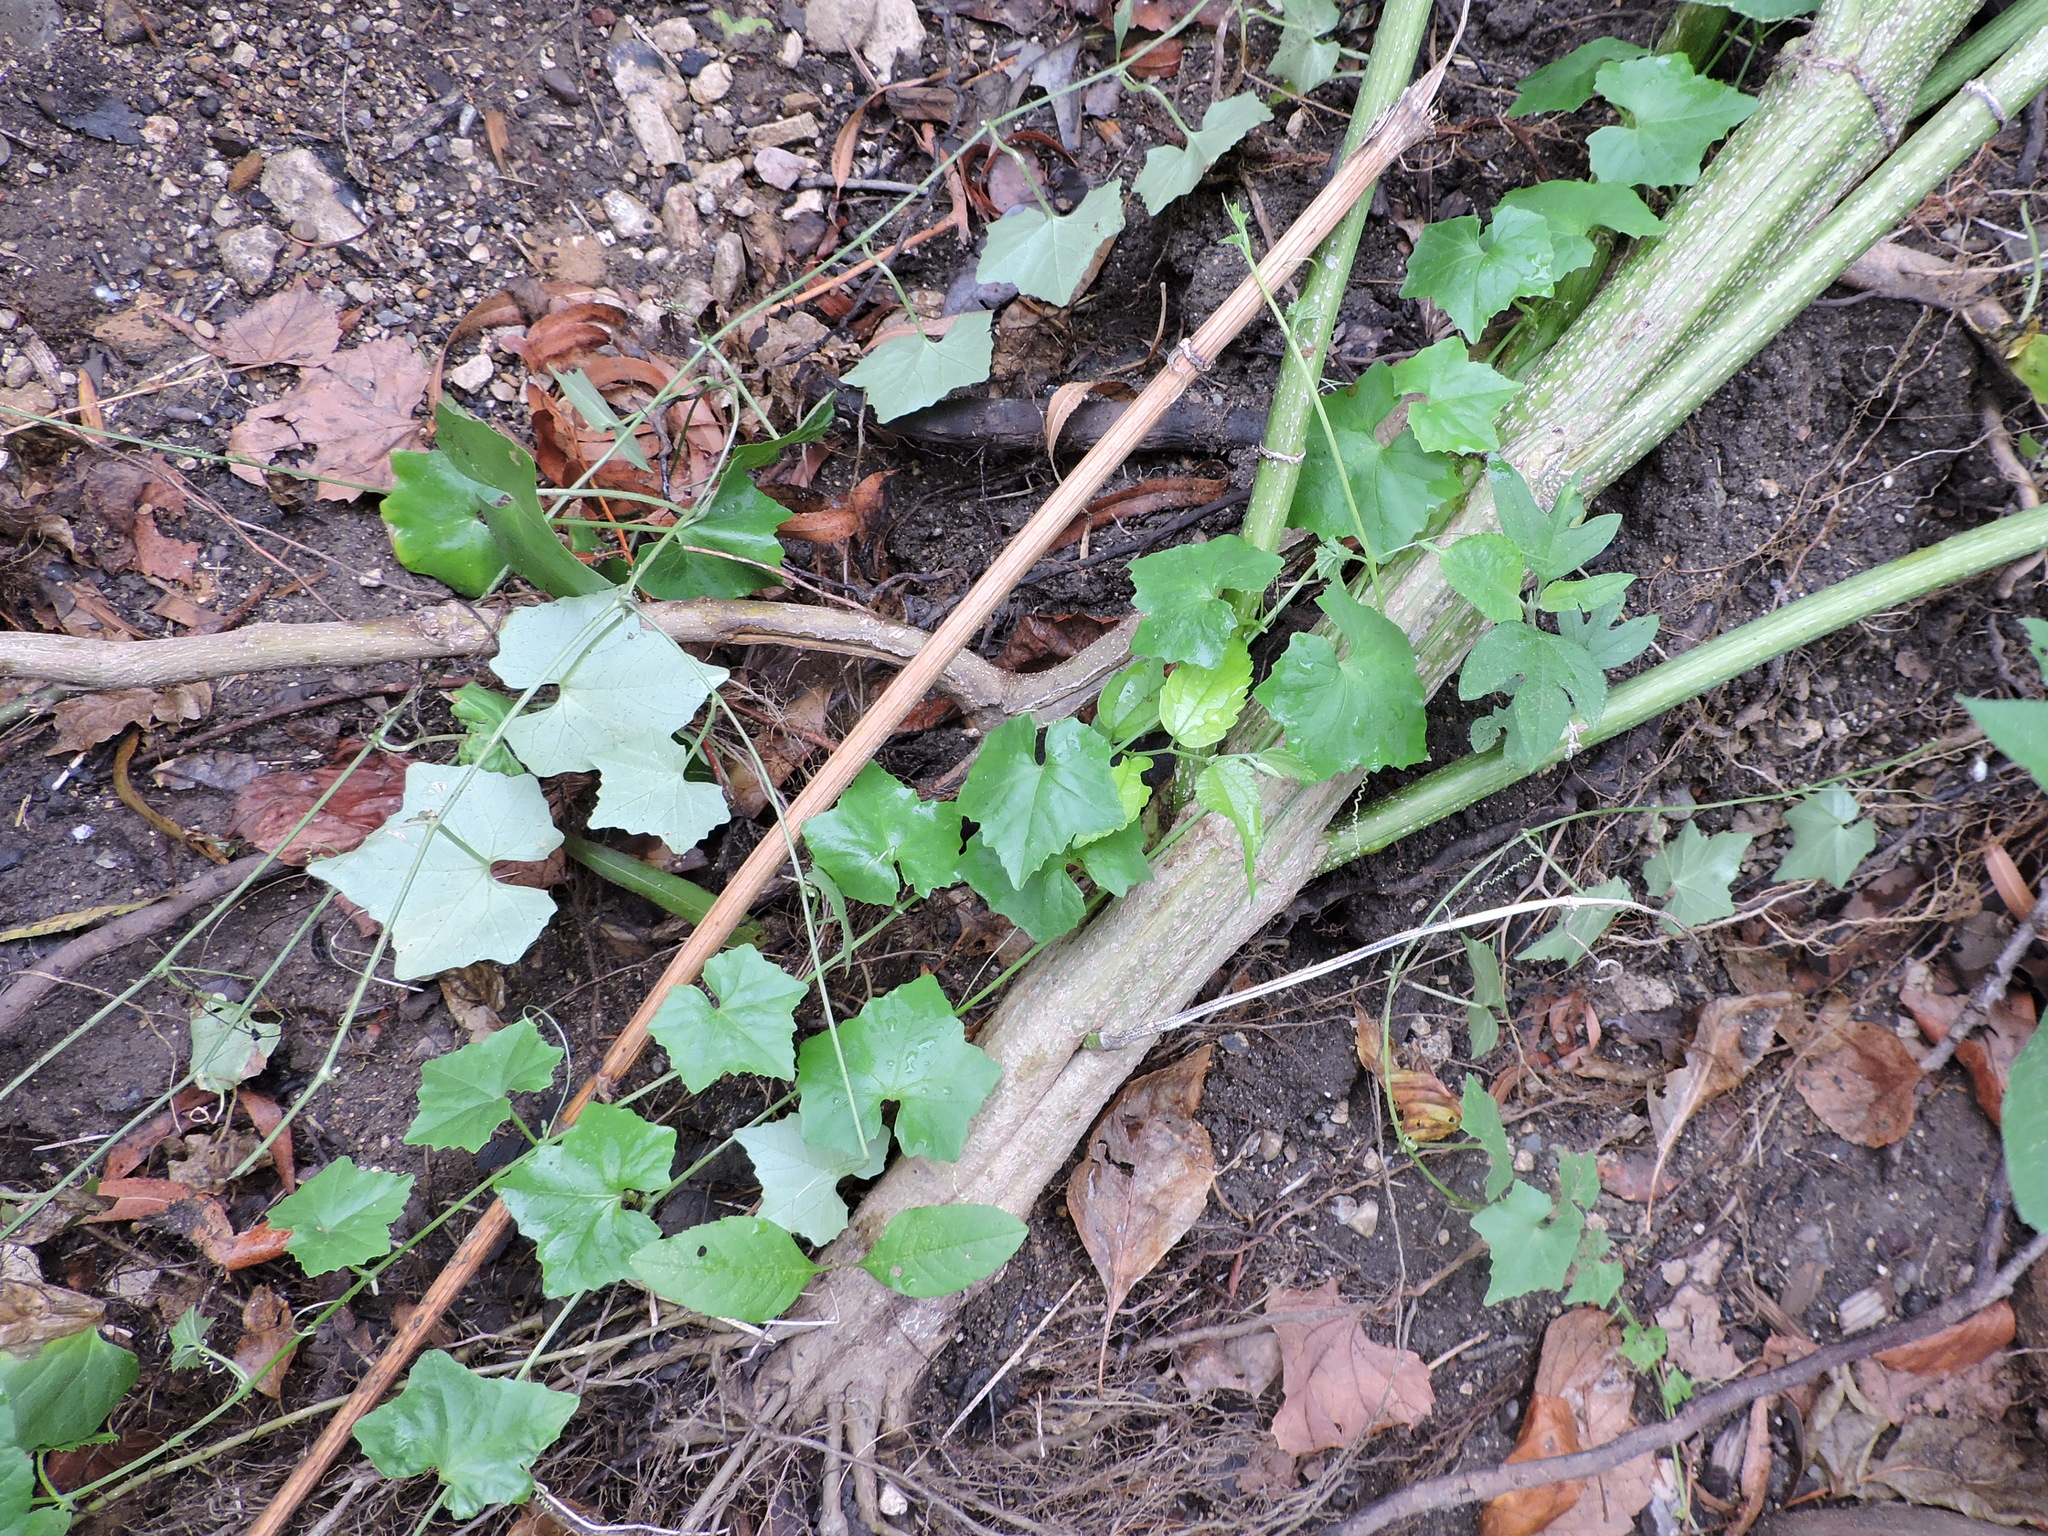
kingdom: Plantae
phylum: Tracheophyta
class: Magnoliopsida
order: Cucurbitales
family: Cucurbitaceae
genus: Melothria
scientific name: Melothria pendula
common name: Creeping-cucumber
